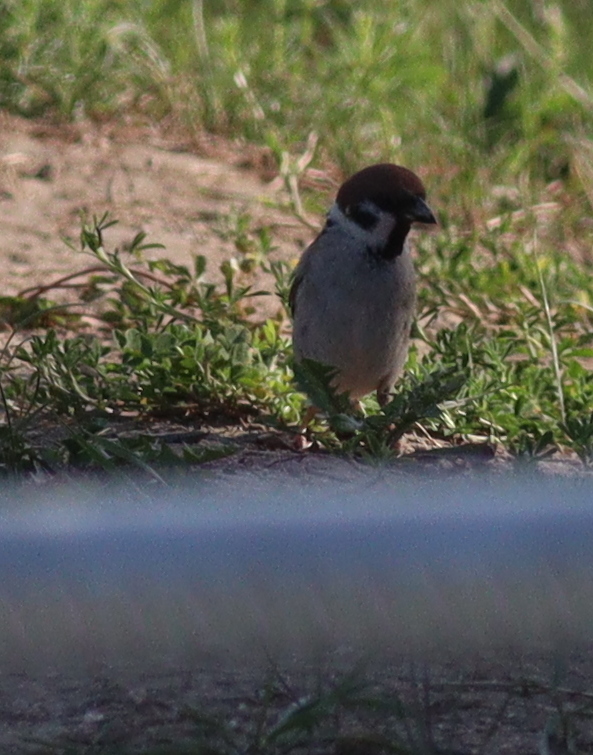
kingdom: Animalia
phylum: Chordata
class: Aves
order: Passeriformes
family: Passeridae
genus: Passer
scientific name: Passer montanus
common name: Eurasian tree sparrow
